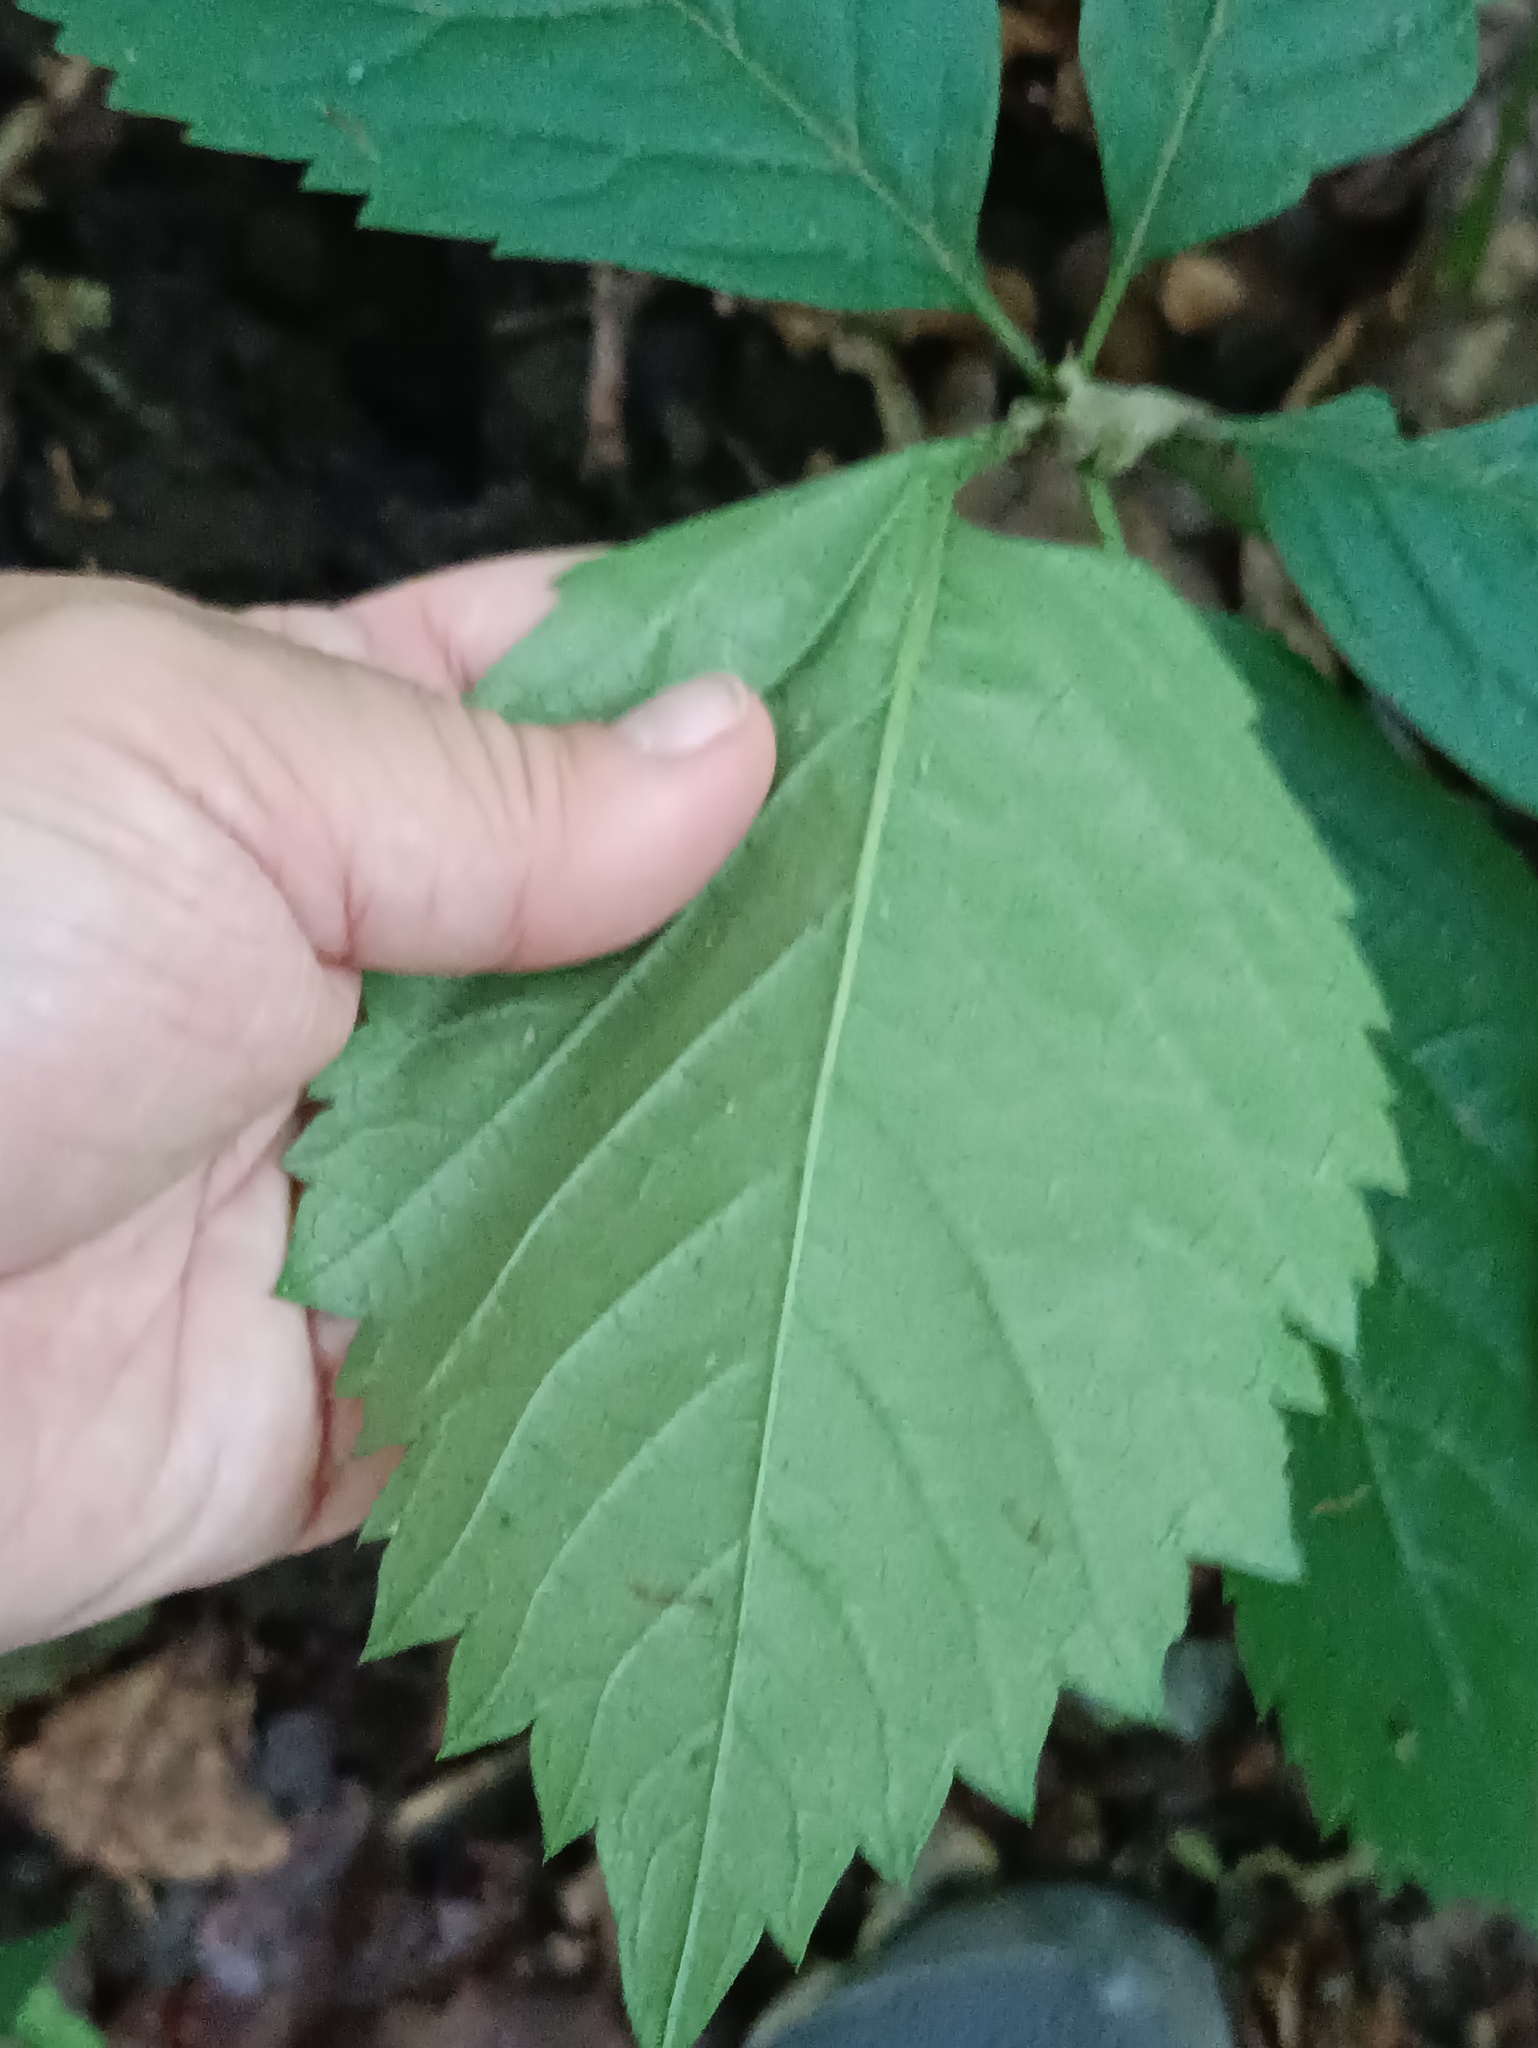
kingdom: Plantae
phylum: Tracheophyta
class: Magnoliopsida
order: Vitales
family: Vitaceae
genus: Parthenocissus
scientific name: Parthenocissus inserta
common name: False virginia-creeper
